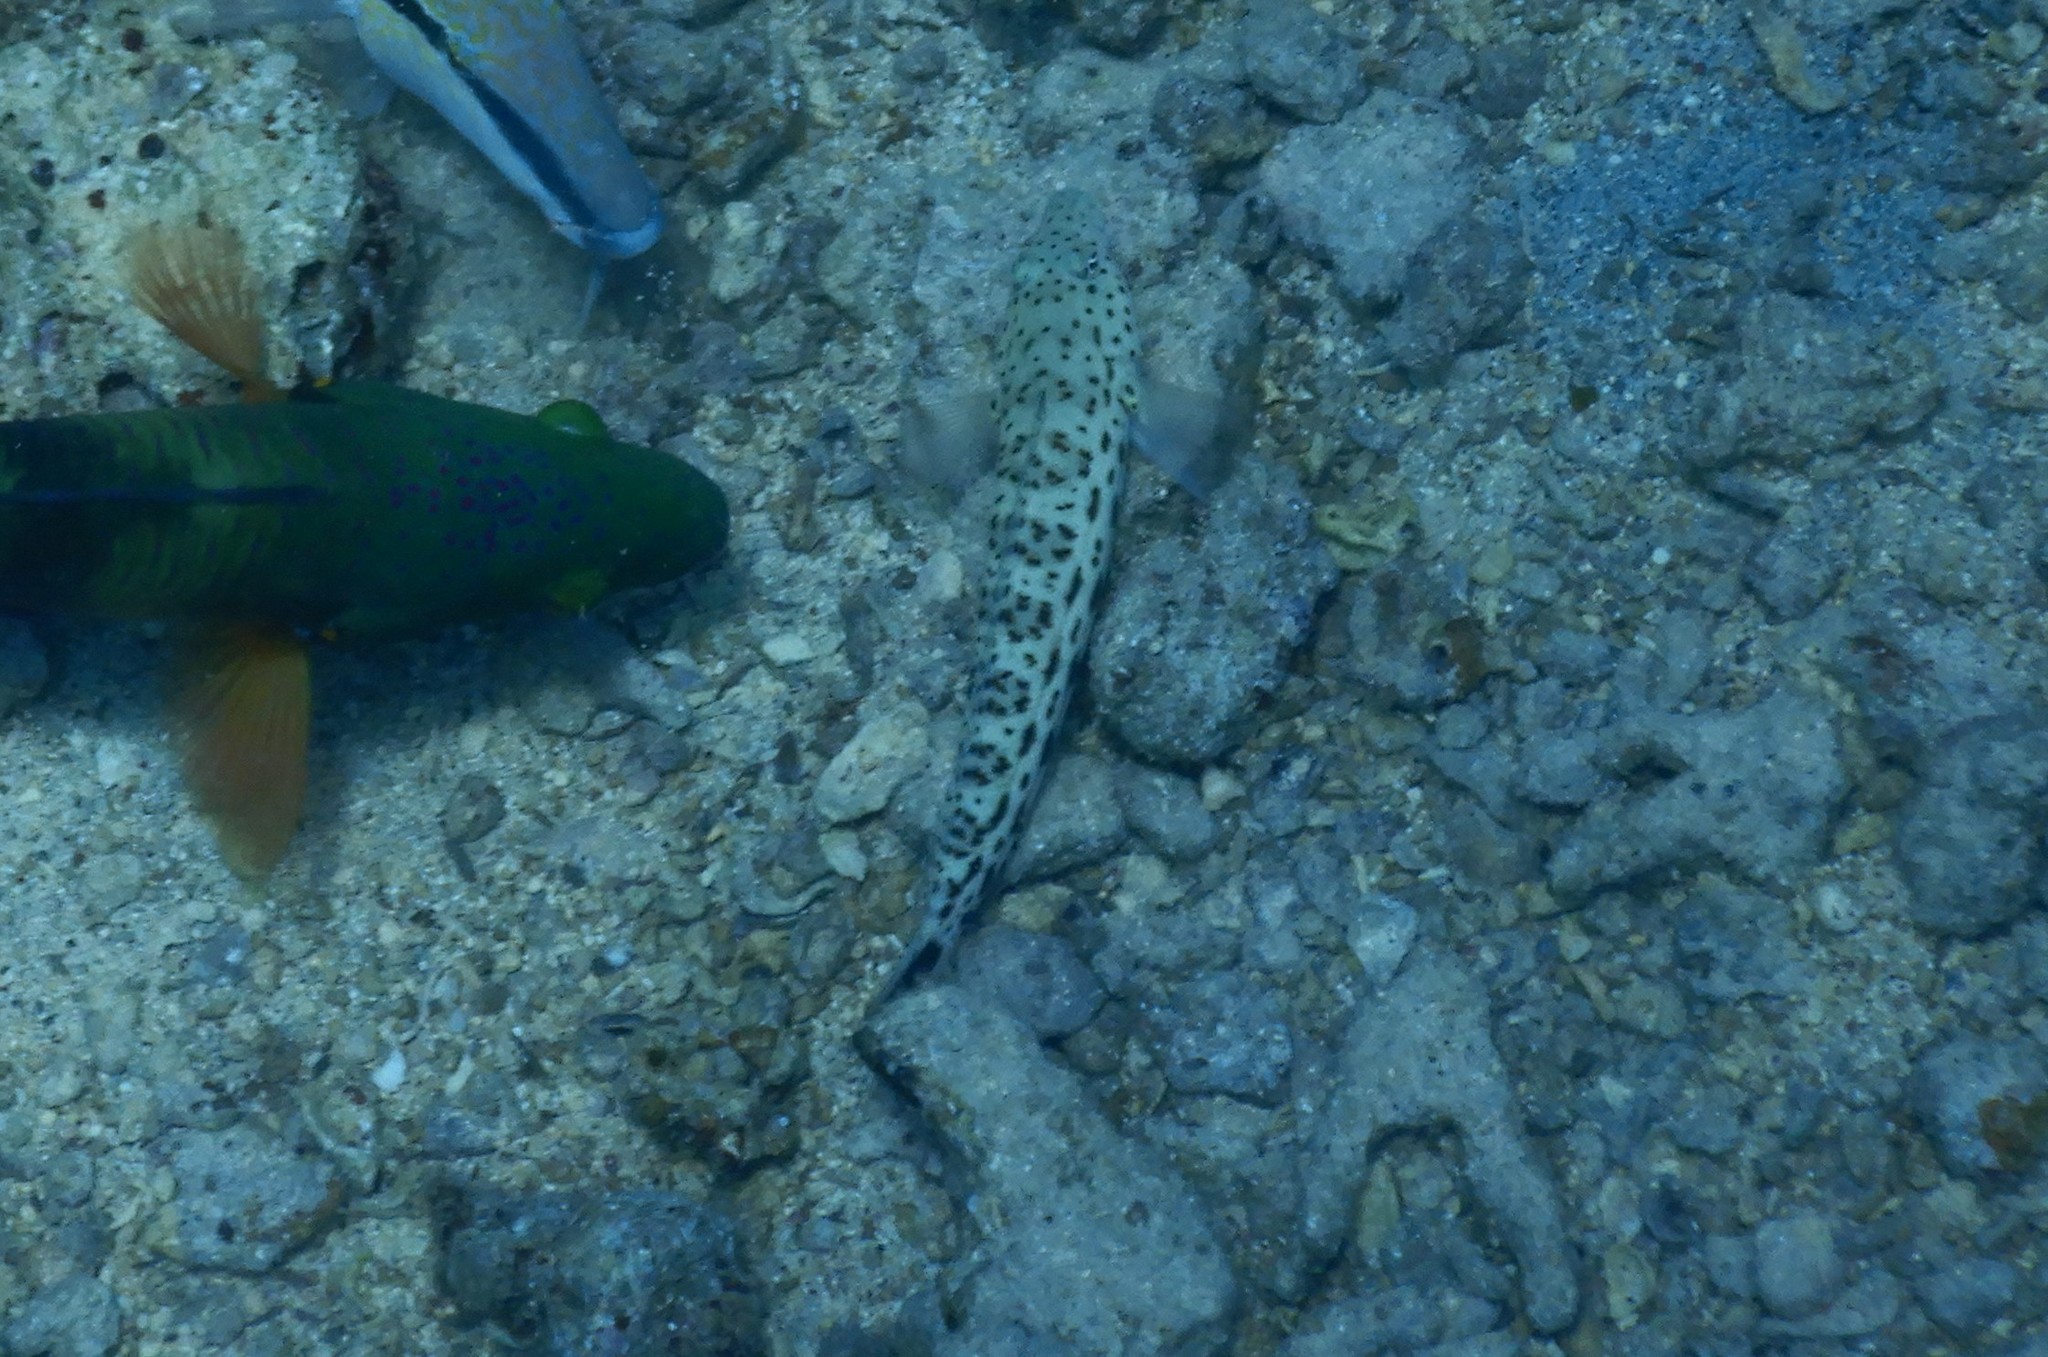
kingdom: Animalia
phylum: Chordata
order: Perciformes
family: Pinguipedidae
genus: Parapercis
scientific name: Parapercis hexophtalma
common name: Speckled sandperch
